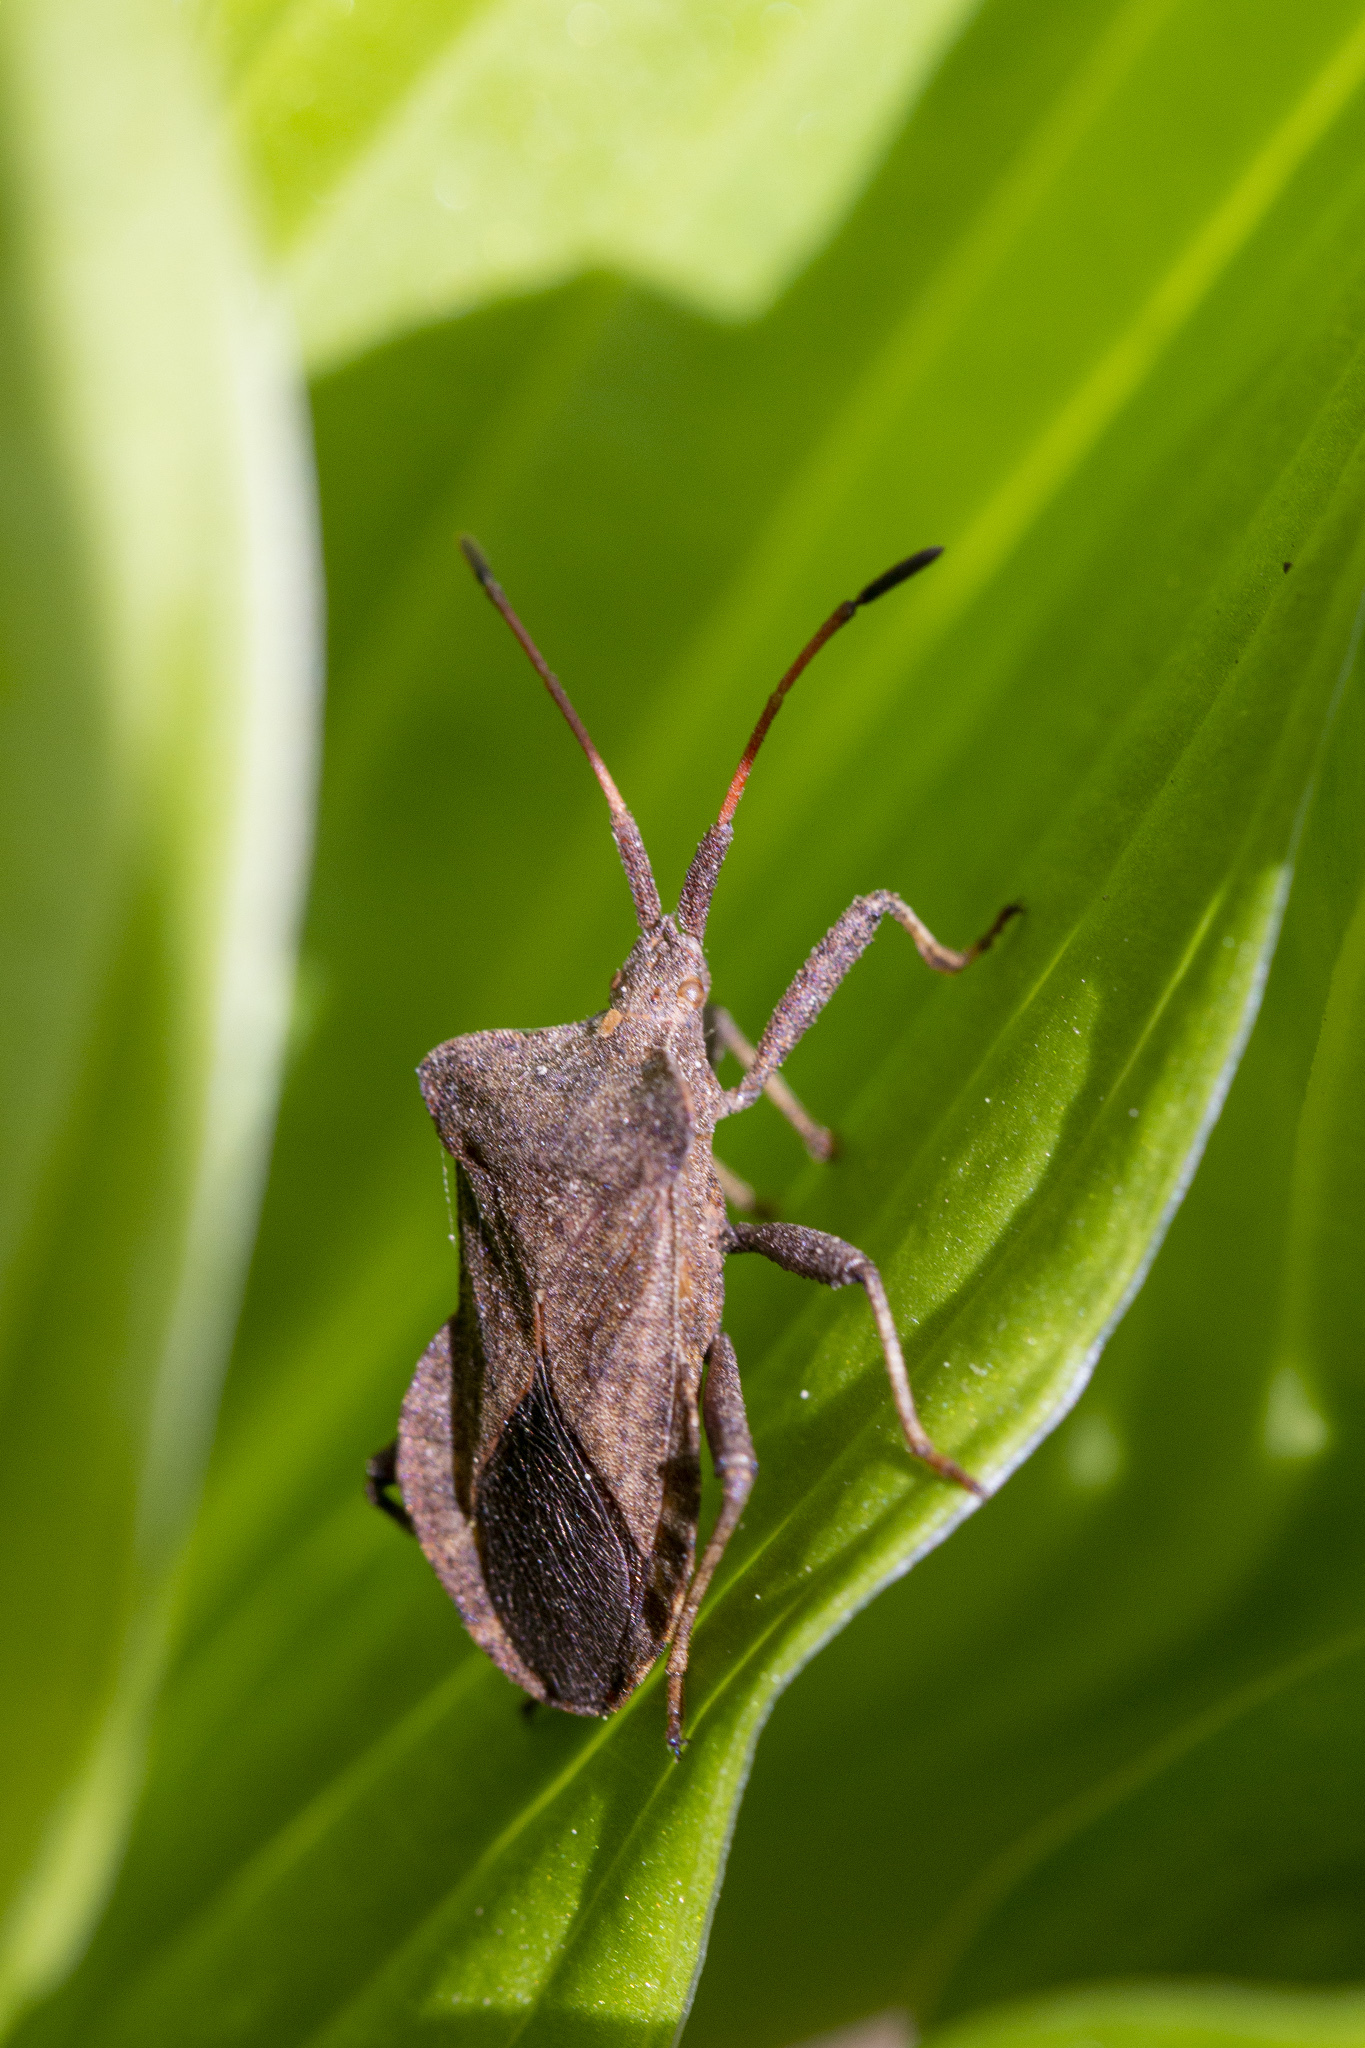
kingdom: Animalia
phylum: Arthropoda
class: Insecta
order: Hemiptera
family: Coreidae
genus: Coreus
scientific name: Coreus marginatus
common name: Dock bug
